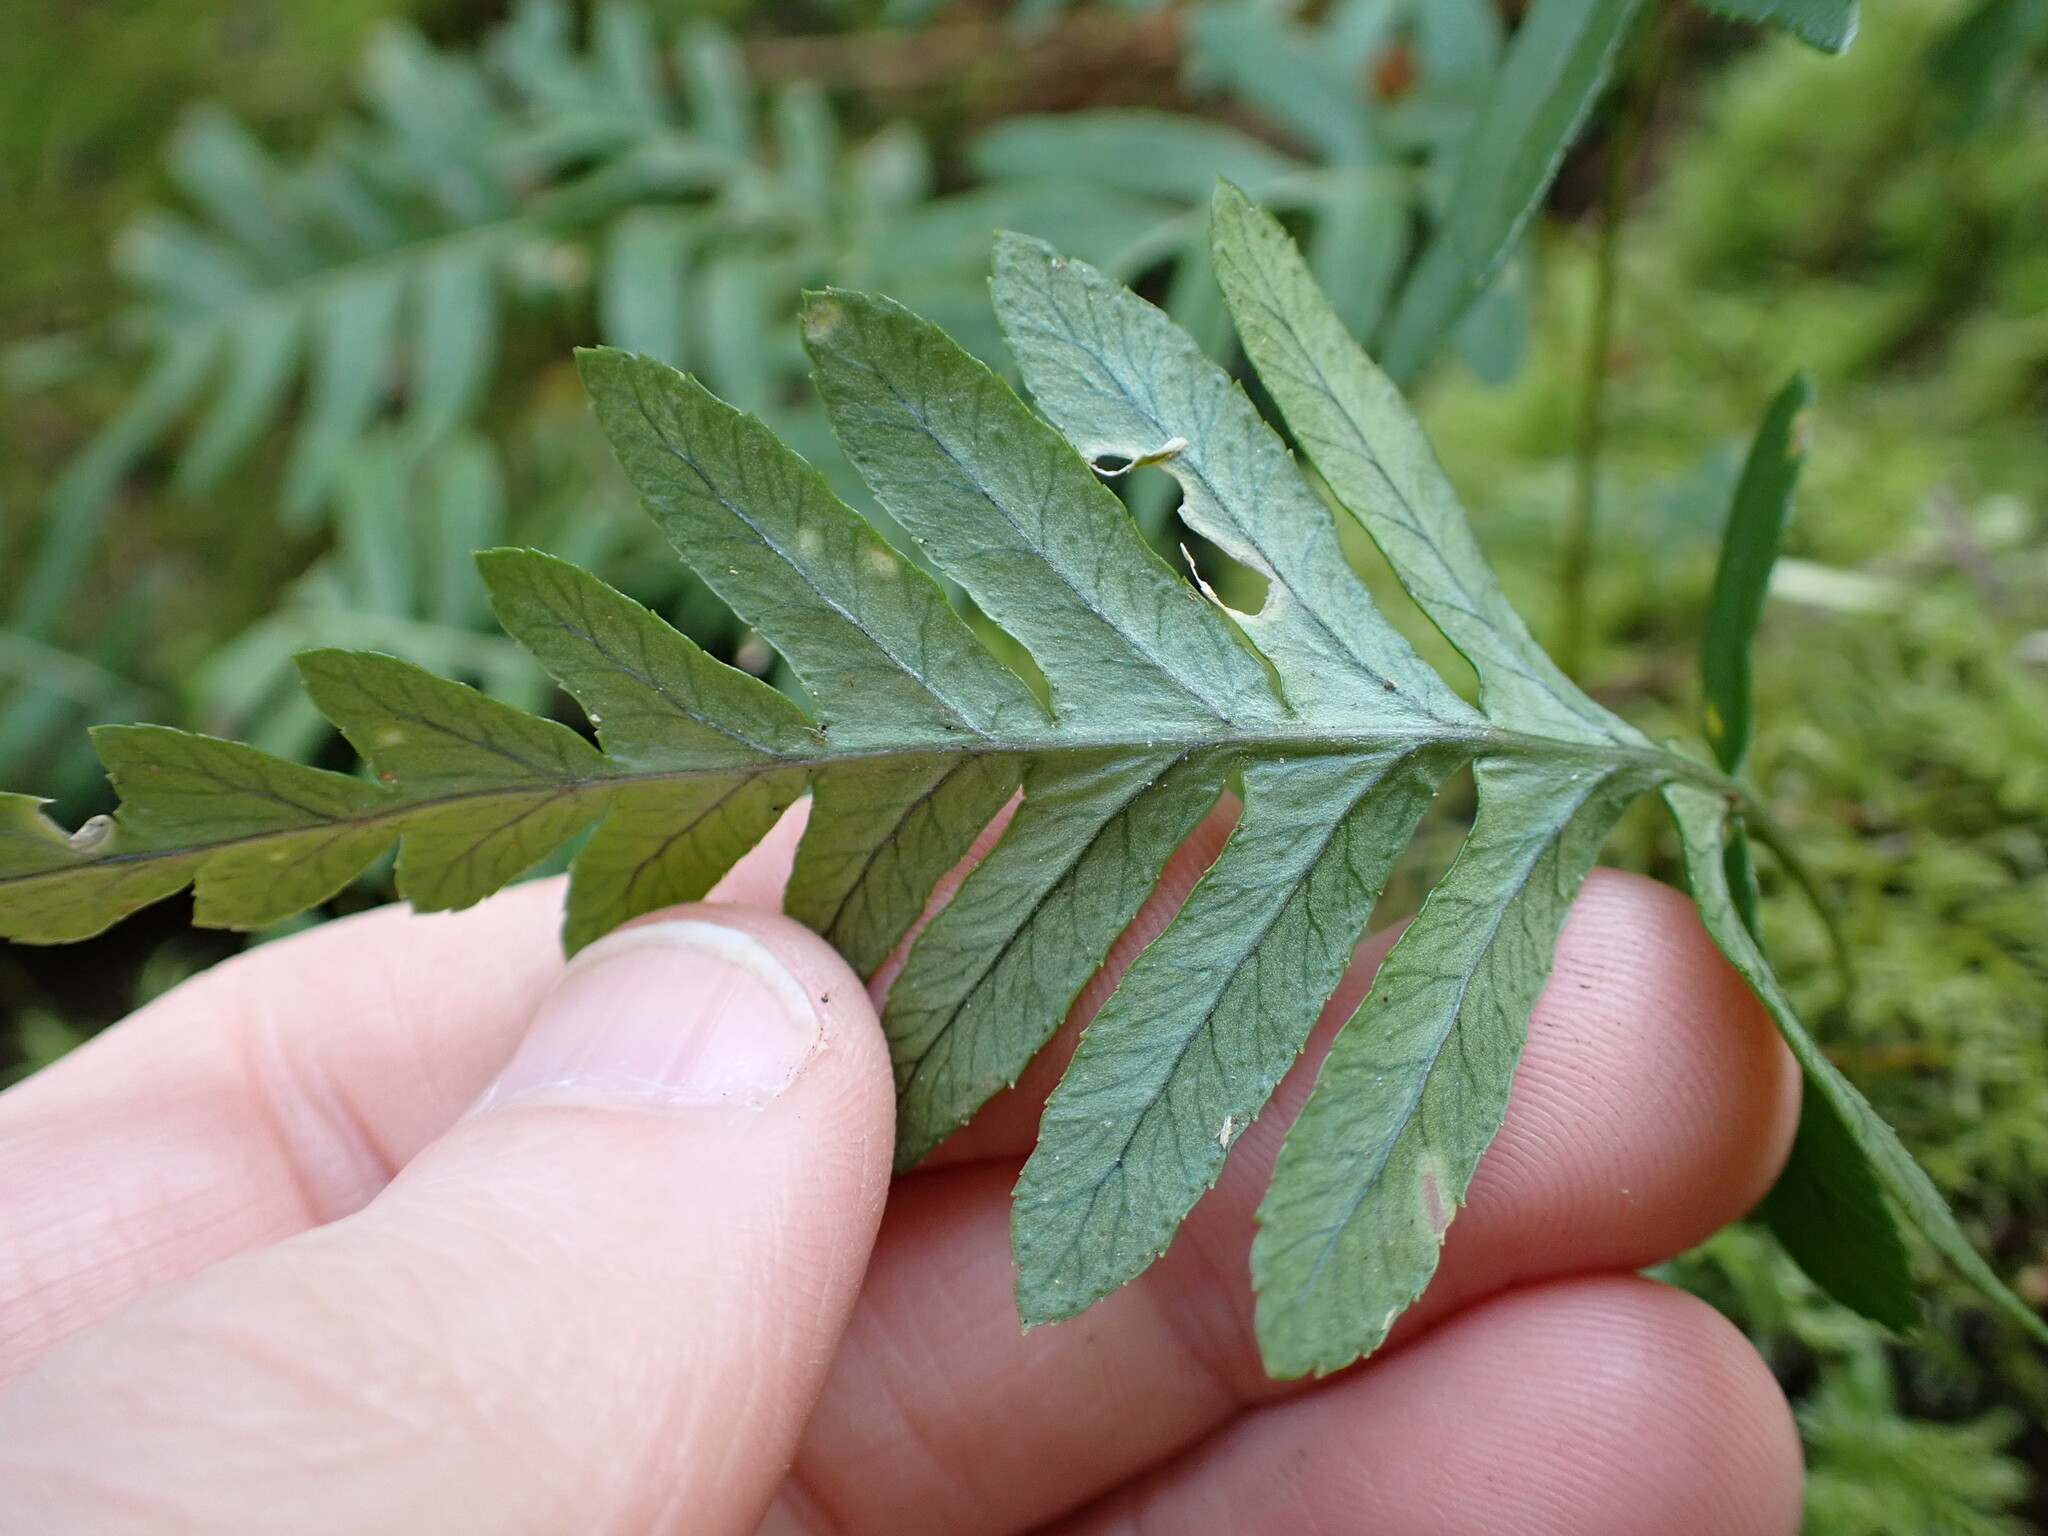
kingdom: Plantae
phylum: Tracheophyta
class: Polypodiopsida
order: Polypodiales
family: Polypodiaceae
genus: Polypodium
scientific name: Polypodium glycyrrhiza
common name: Licorice fern
